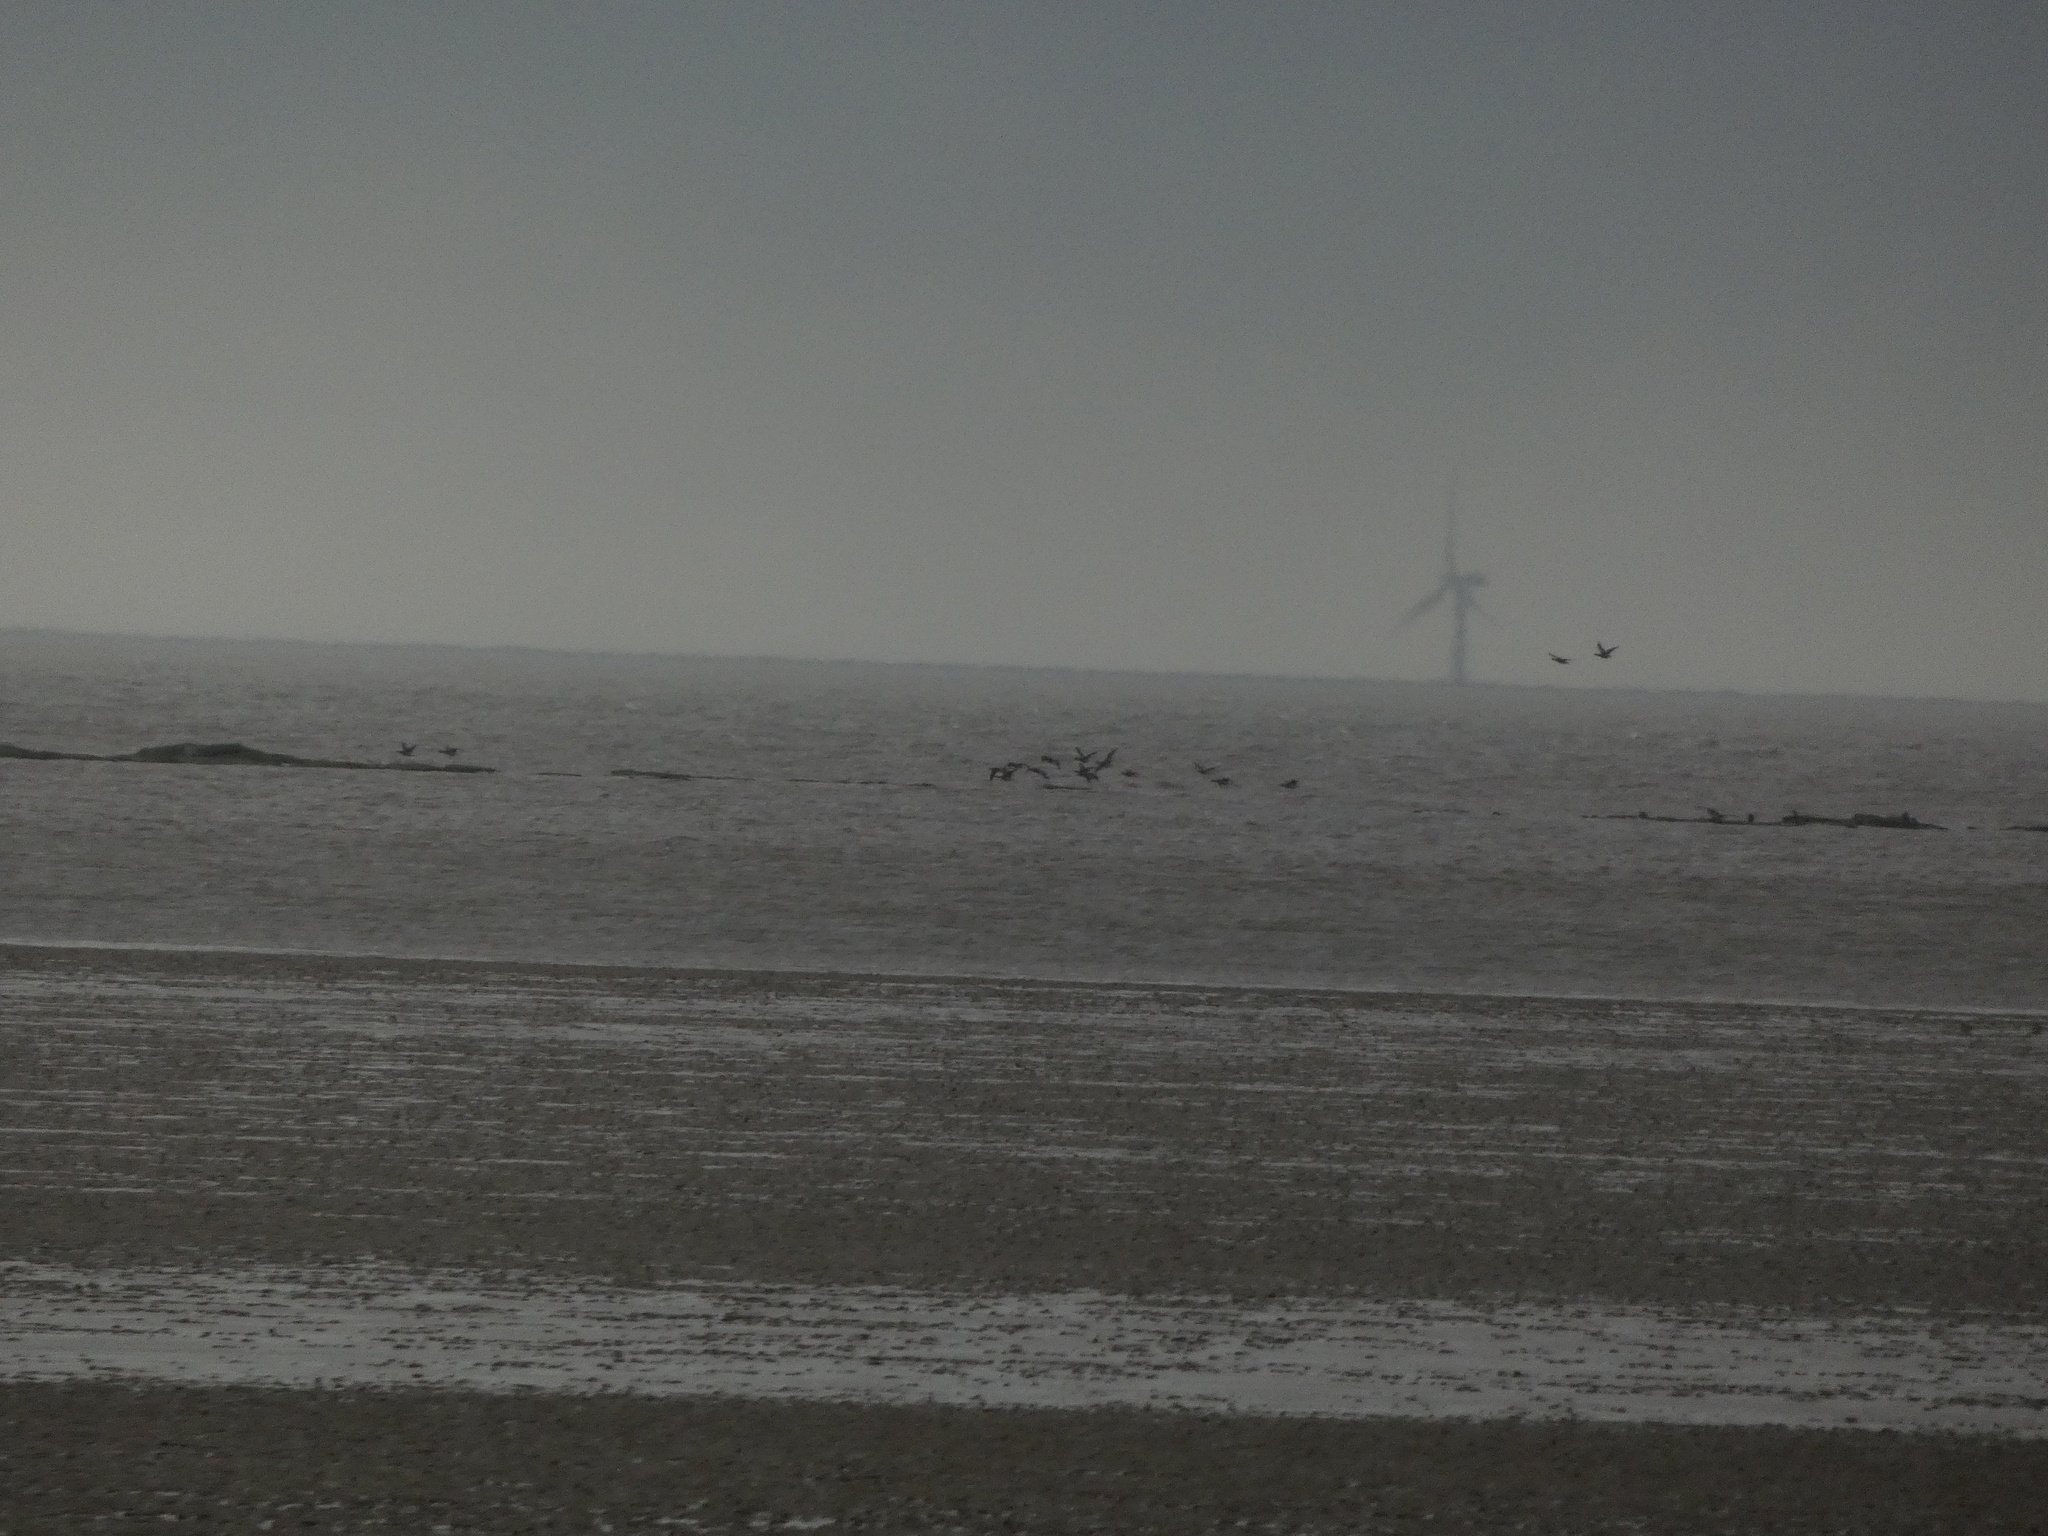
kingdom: Animalia
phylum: Chordata
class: Aves
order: Anseriformes
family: Anatidae
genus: Branta
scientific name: Branta bernicla
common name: Brant goose
